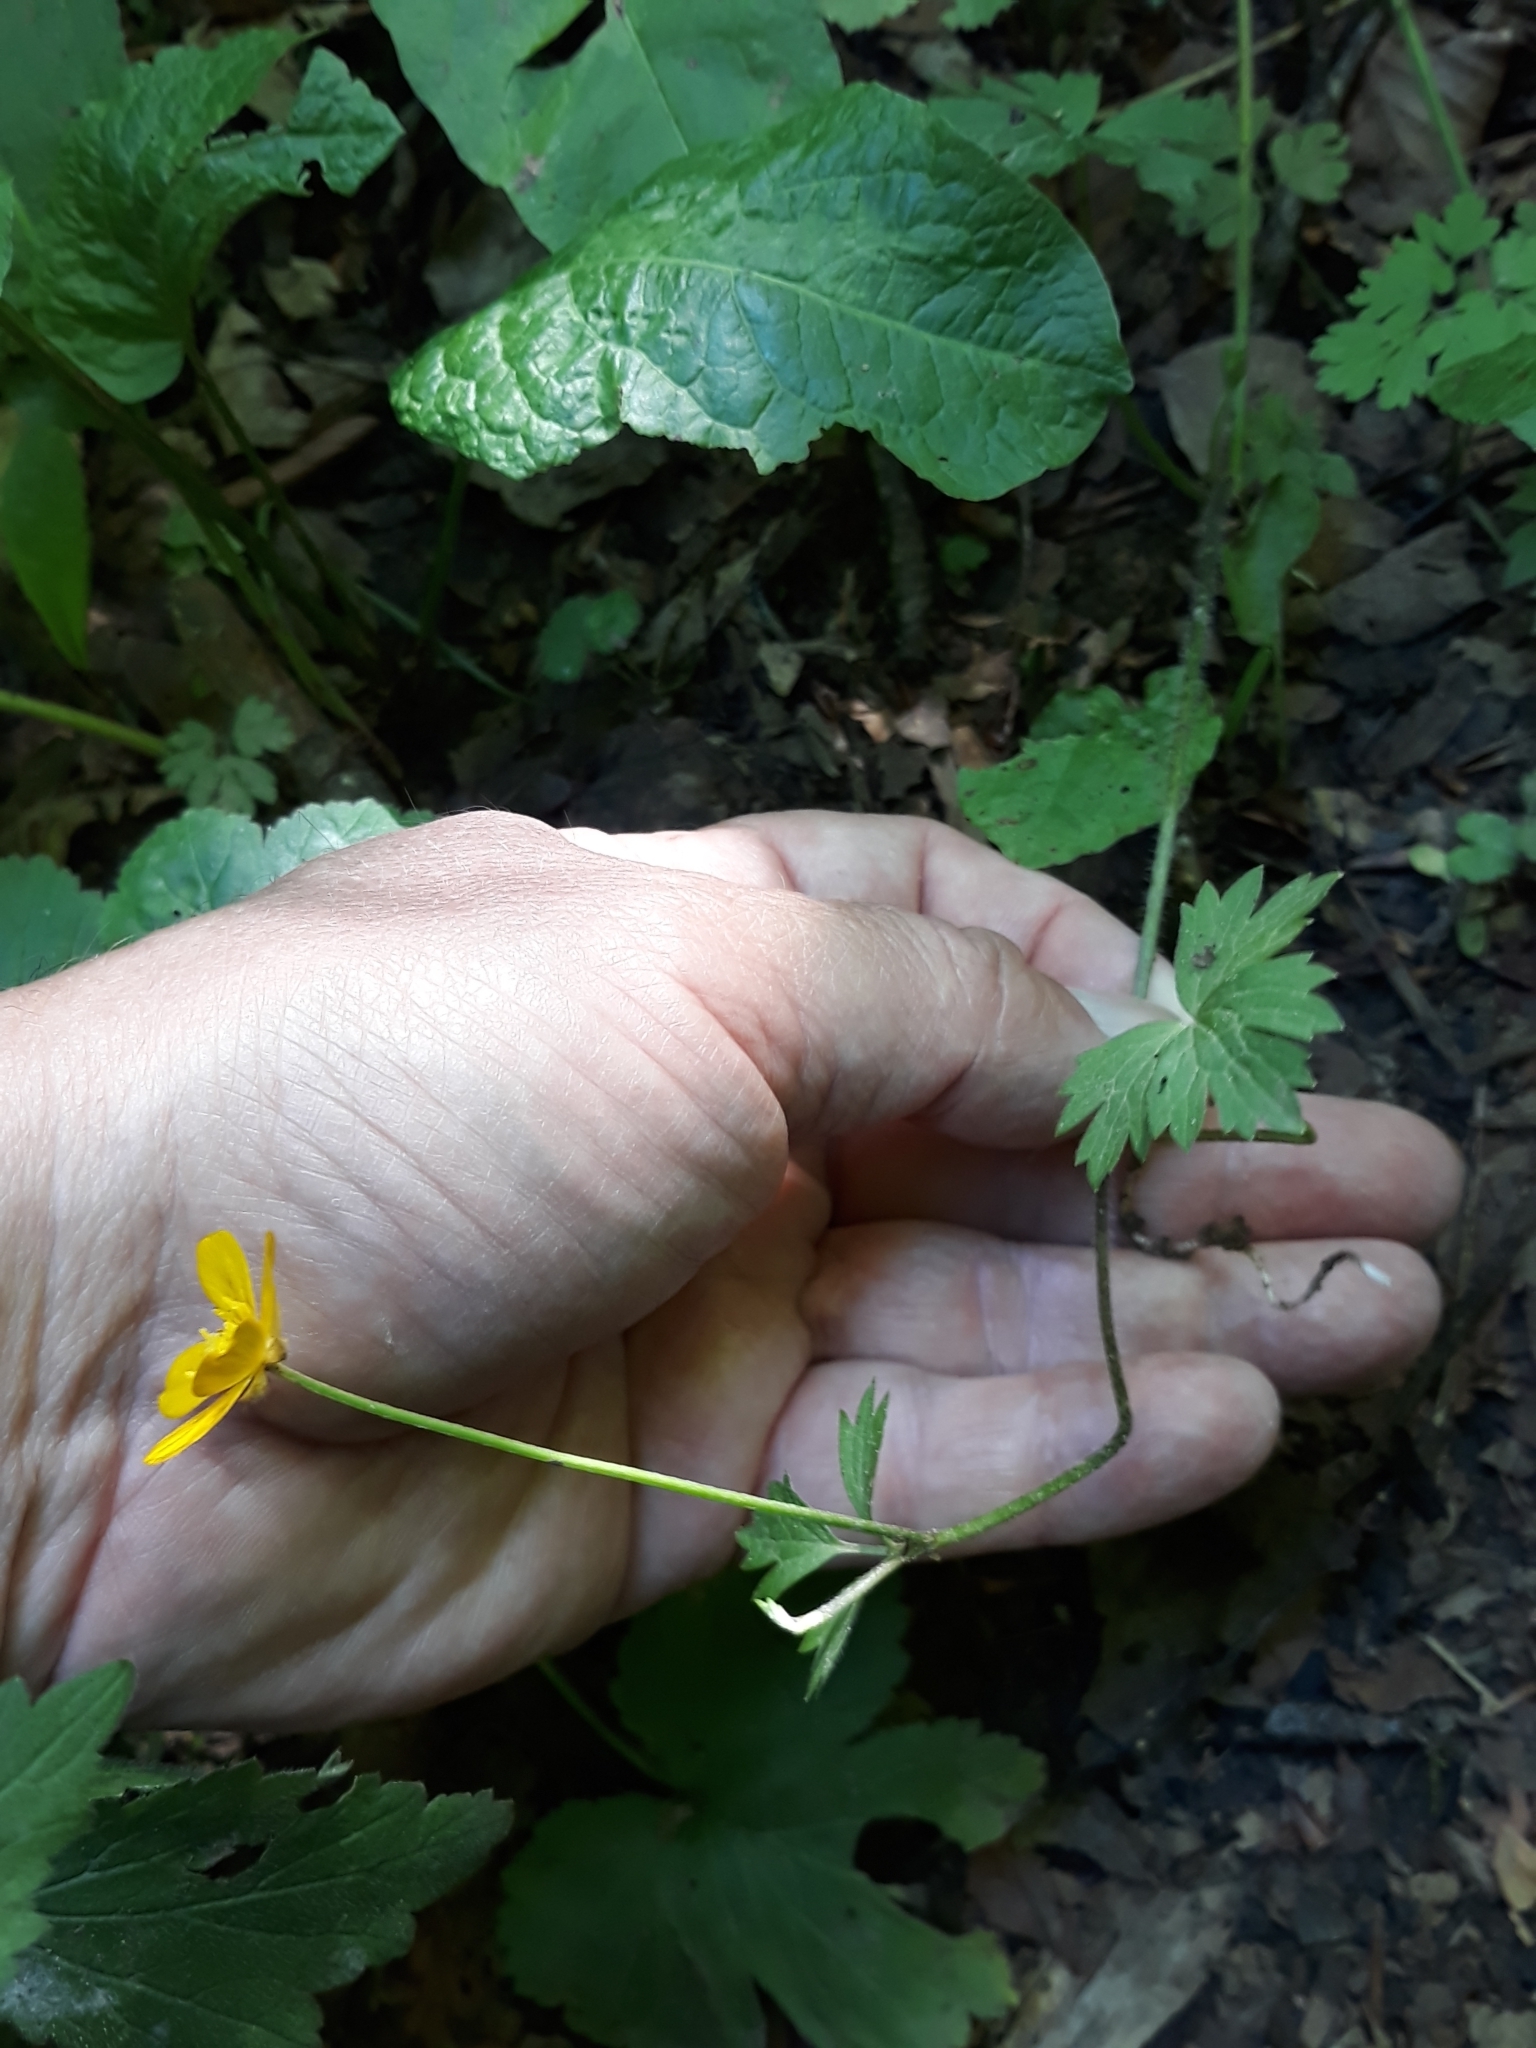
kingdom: Plantae
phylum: Tracheophyta
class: Magnoliopsida
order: Ranunculales
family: Ranunculaceae
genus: Ranunculus
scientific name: Ranunculus repens
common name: Creeping buttercup
